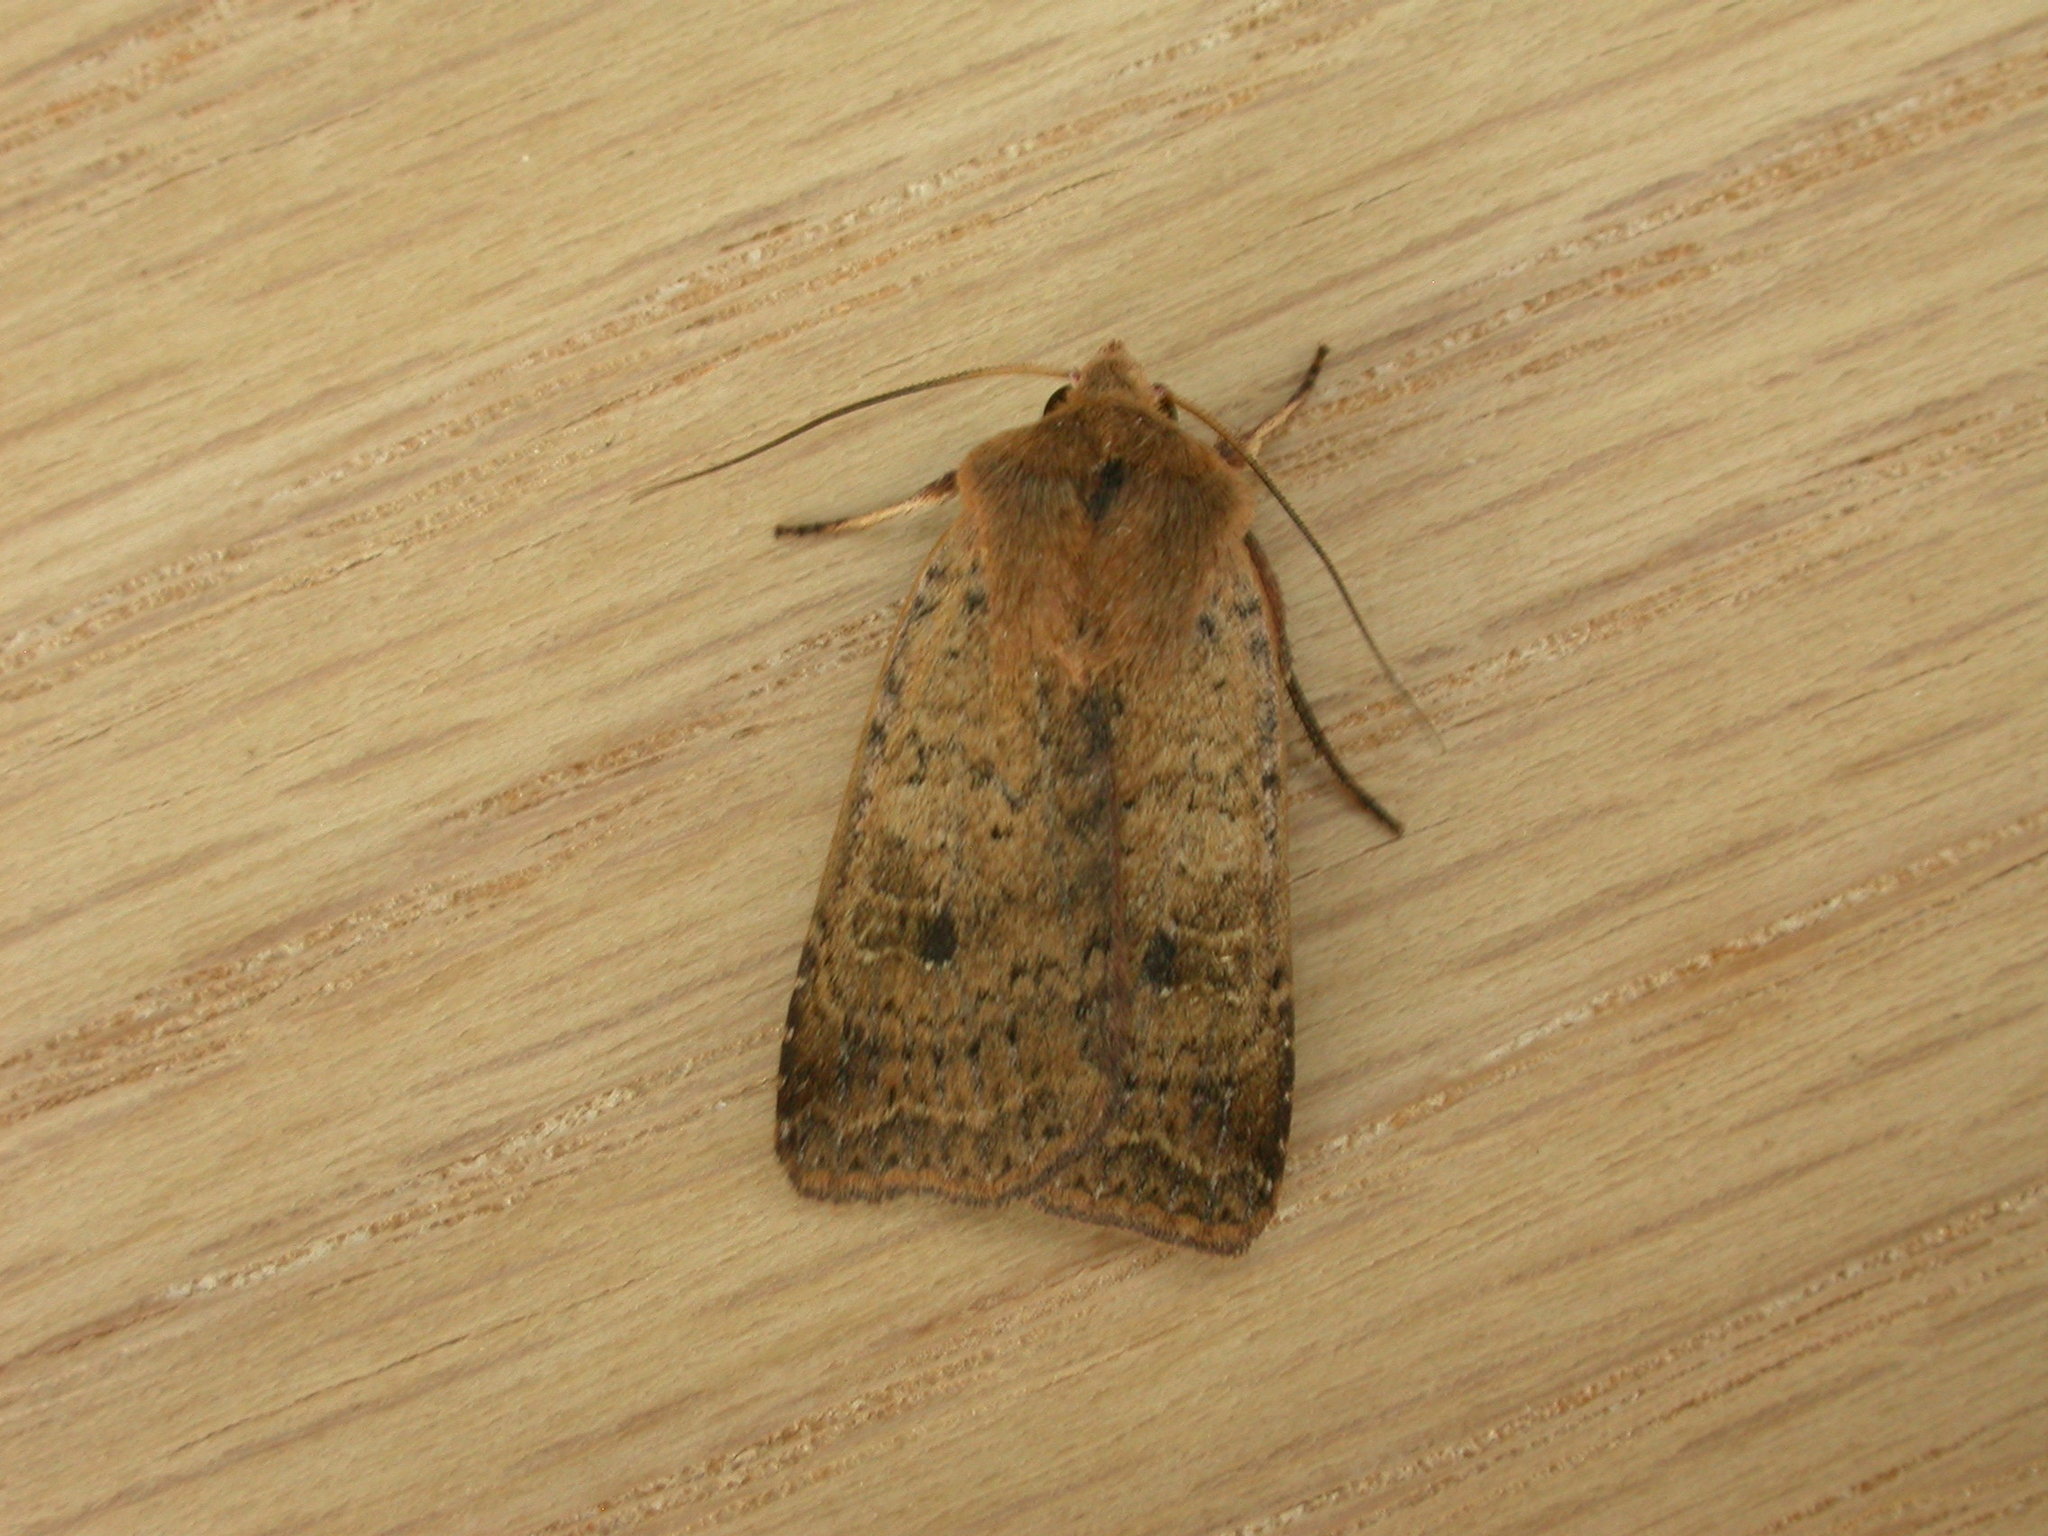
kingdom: Animalia
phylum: Arthropoda
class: Insecta
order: Lepidoptera
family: Noctuidae
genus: Diarsia
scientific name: Diarsia intermixta
